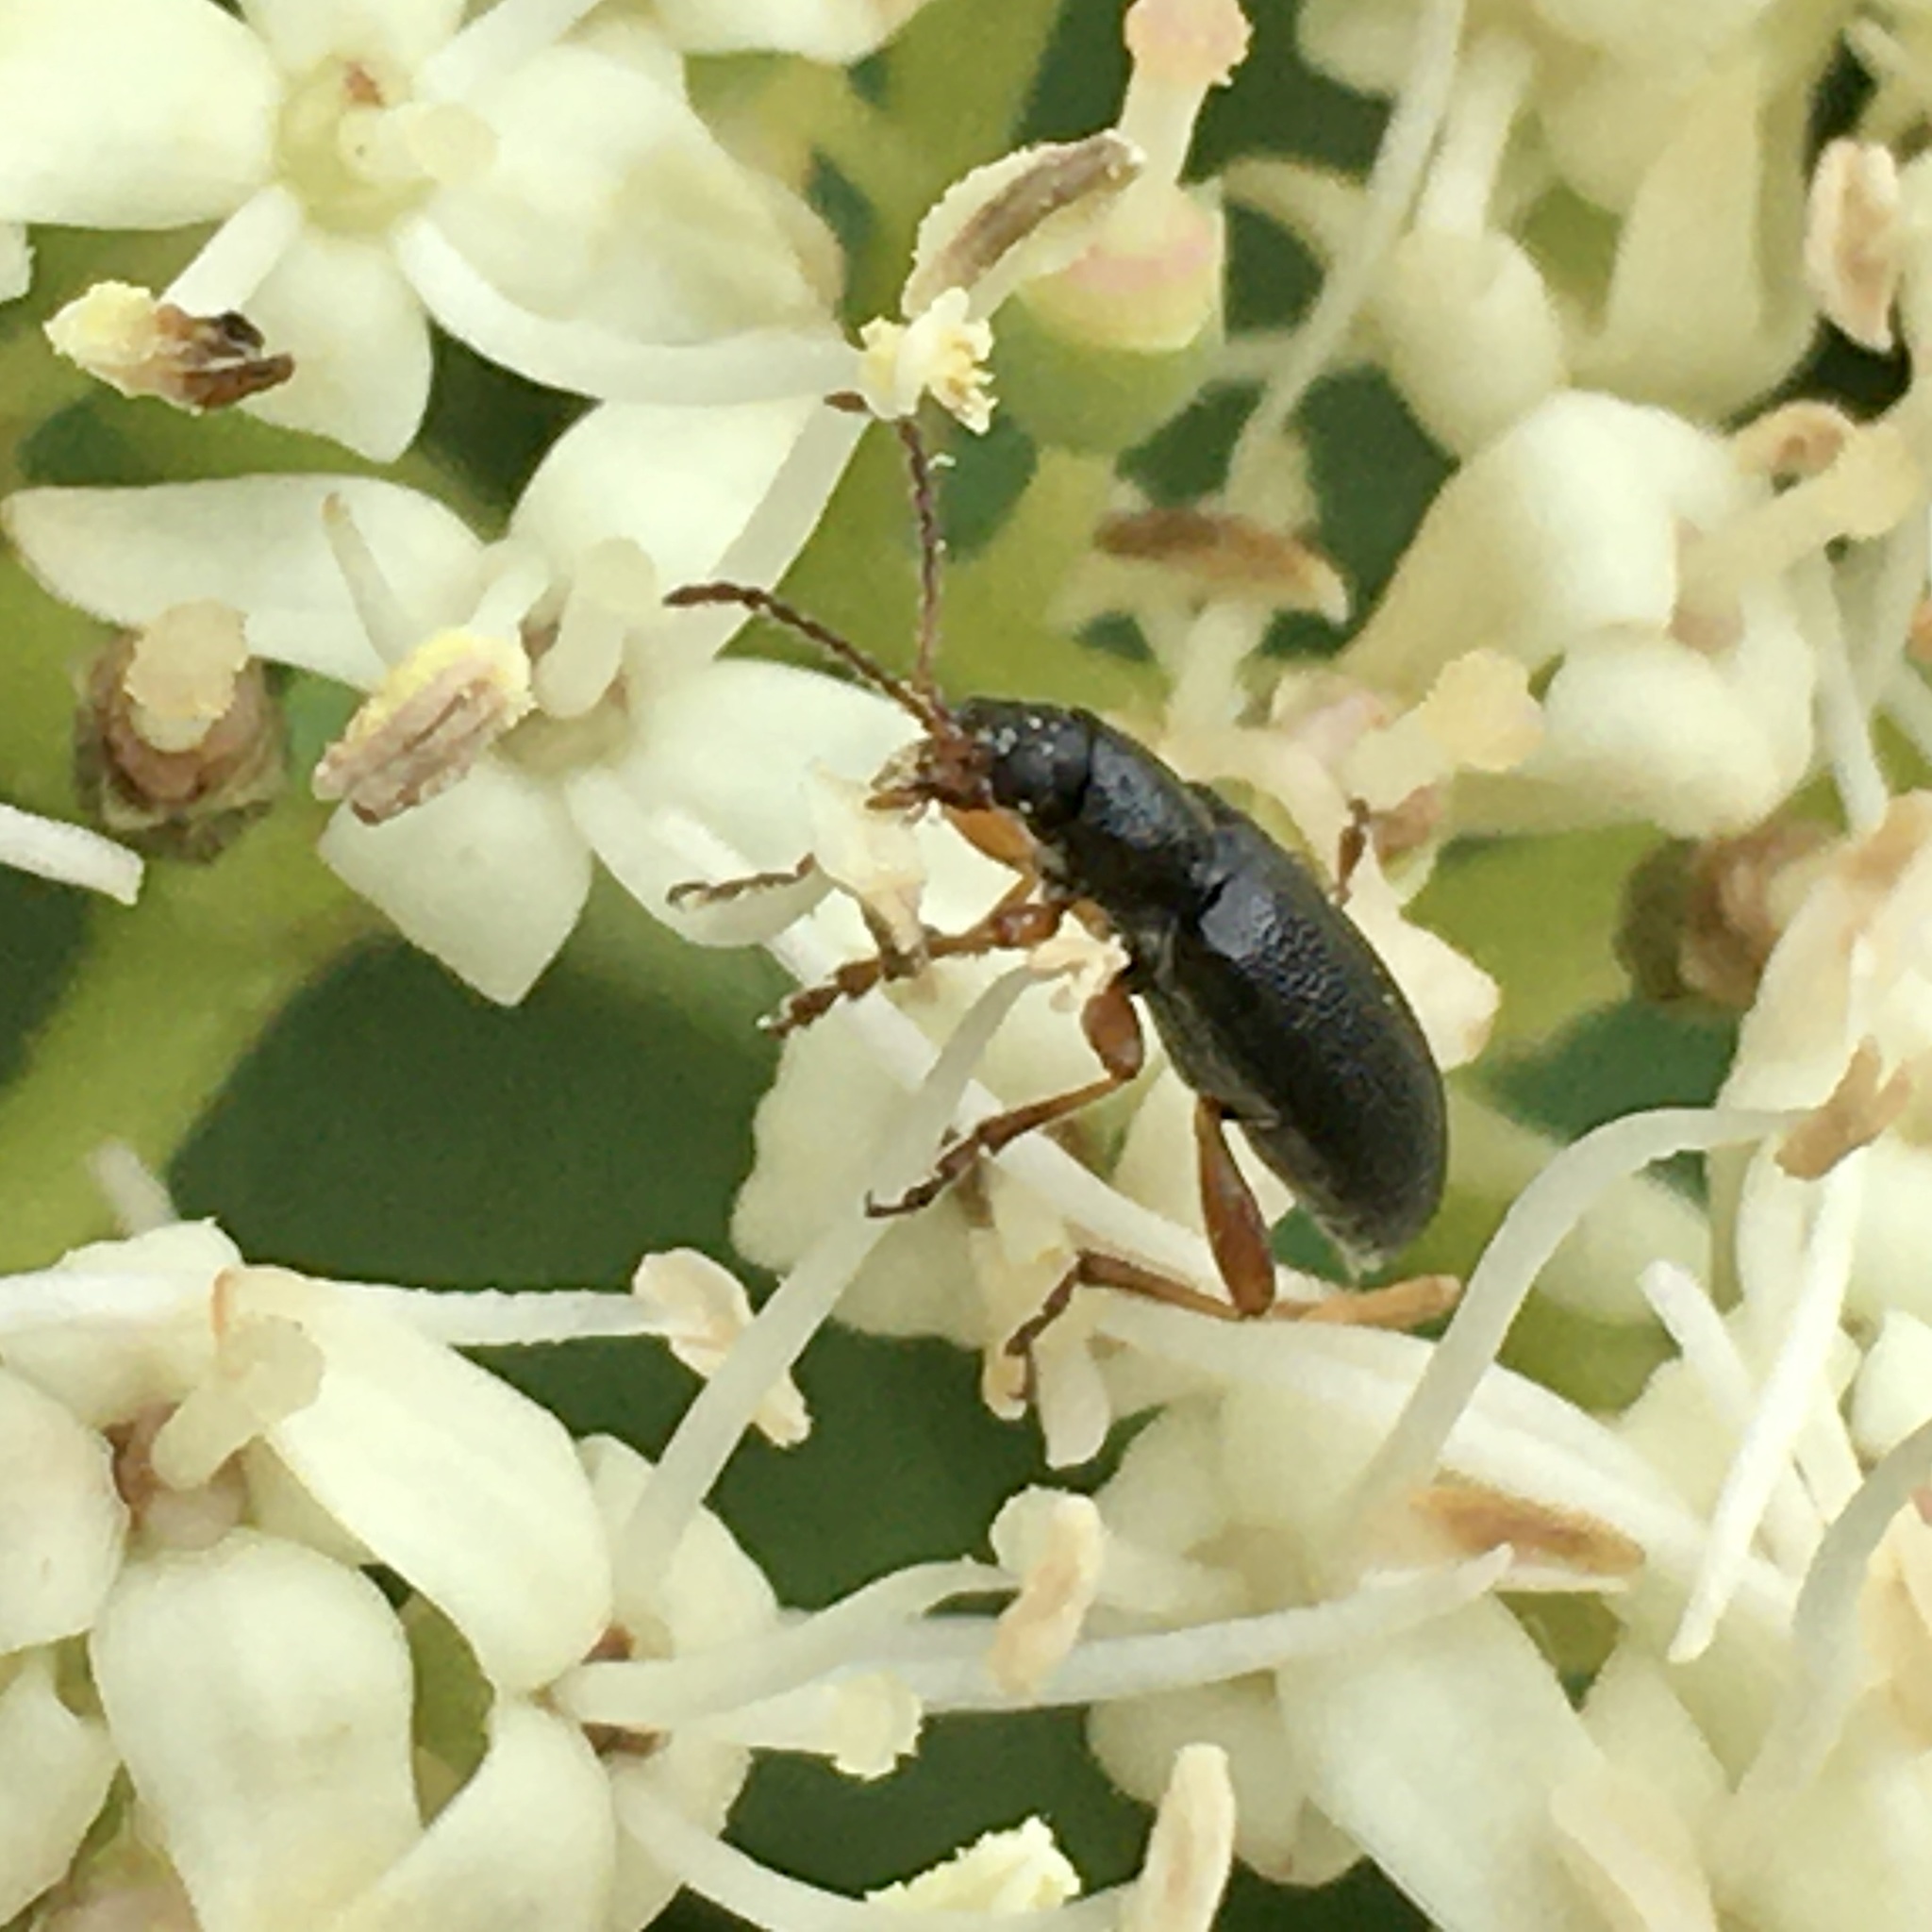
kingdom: Animalia
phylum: Arthropoda
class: Insecta
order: Coleoptera
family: Orsodacnidae
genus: Orsodacne
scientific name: Orsodacne atra
